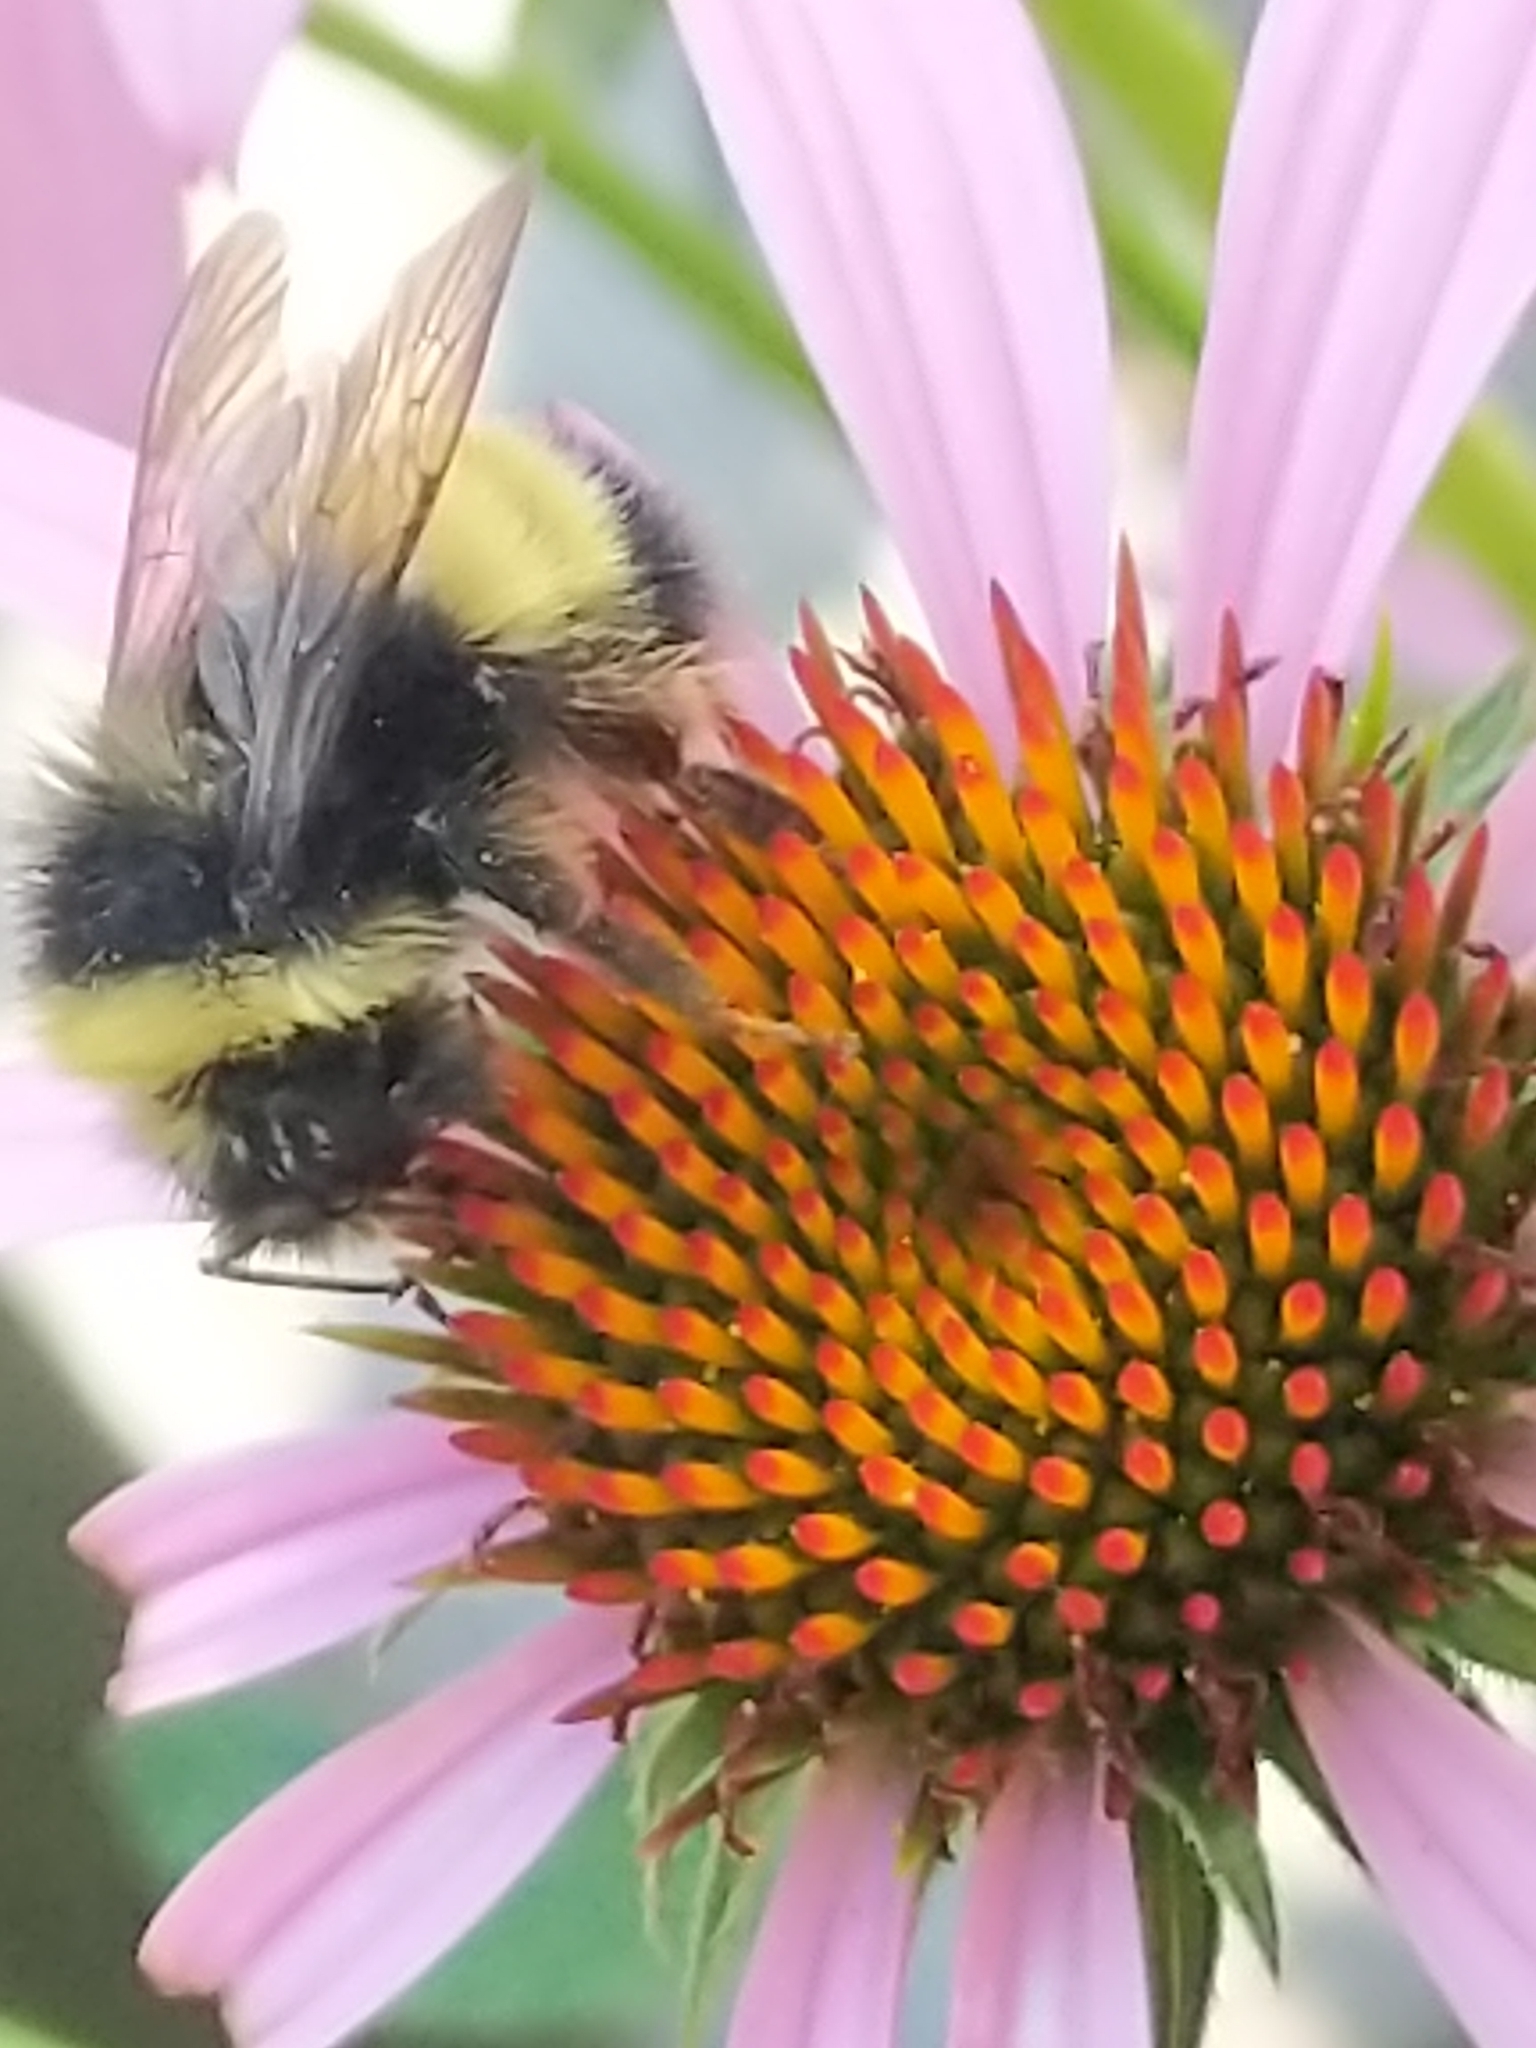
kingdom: Animalia
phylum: Arthropoda
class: Insecta
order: Hymenoptera
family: Apidae
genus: Bombus
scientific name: Bombus terricola
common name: Yellow-banded bumble bee
